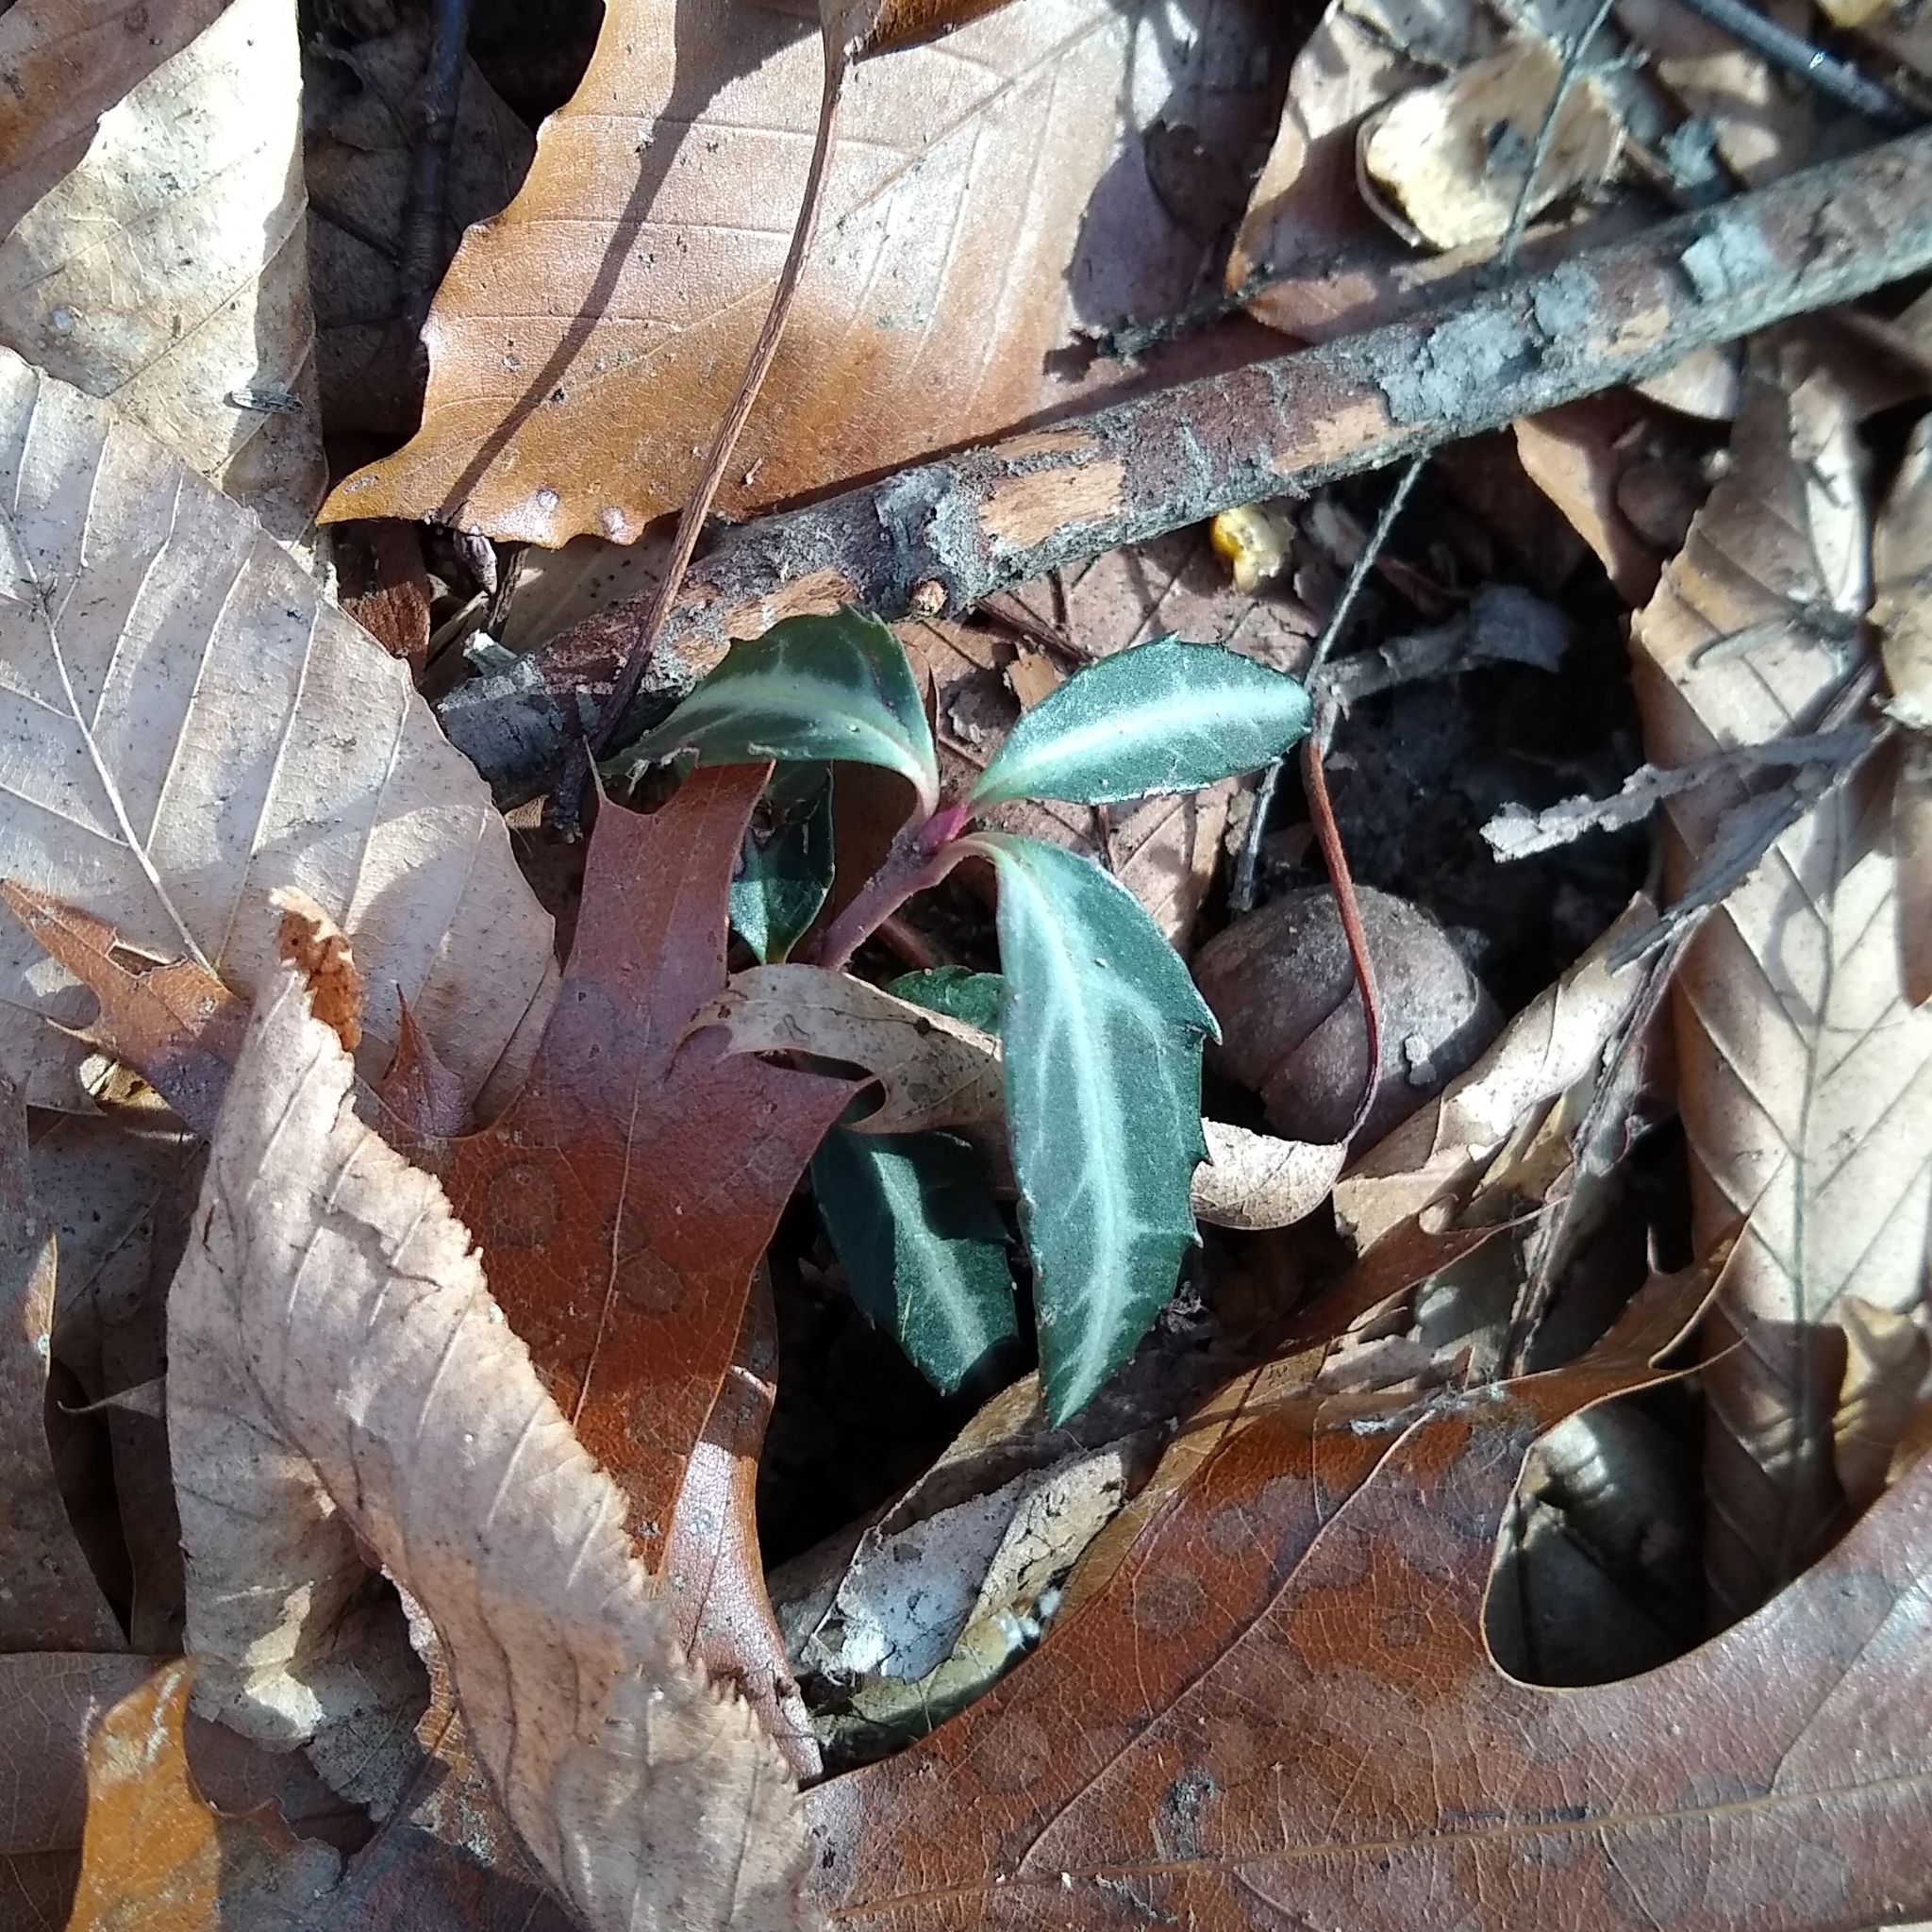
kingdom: Plantae
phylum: Tracheophyta
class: Magnoliopsida
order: Ericales
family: Ericaceae
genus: Chimaphila
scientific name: Chimaphila maculata
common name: Spotted pipsissewa
